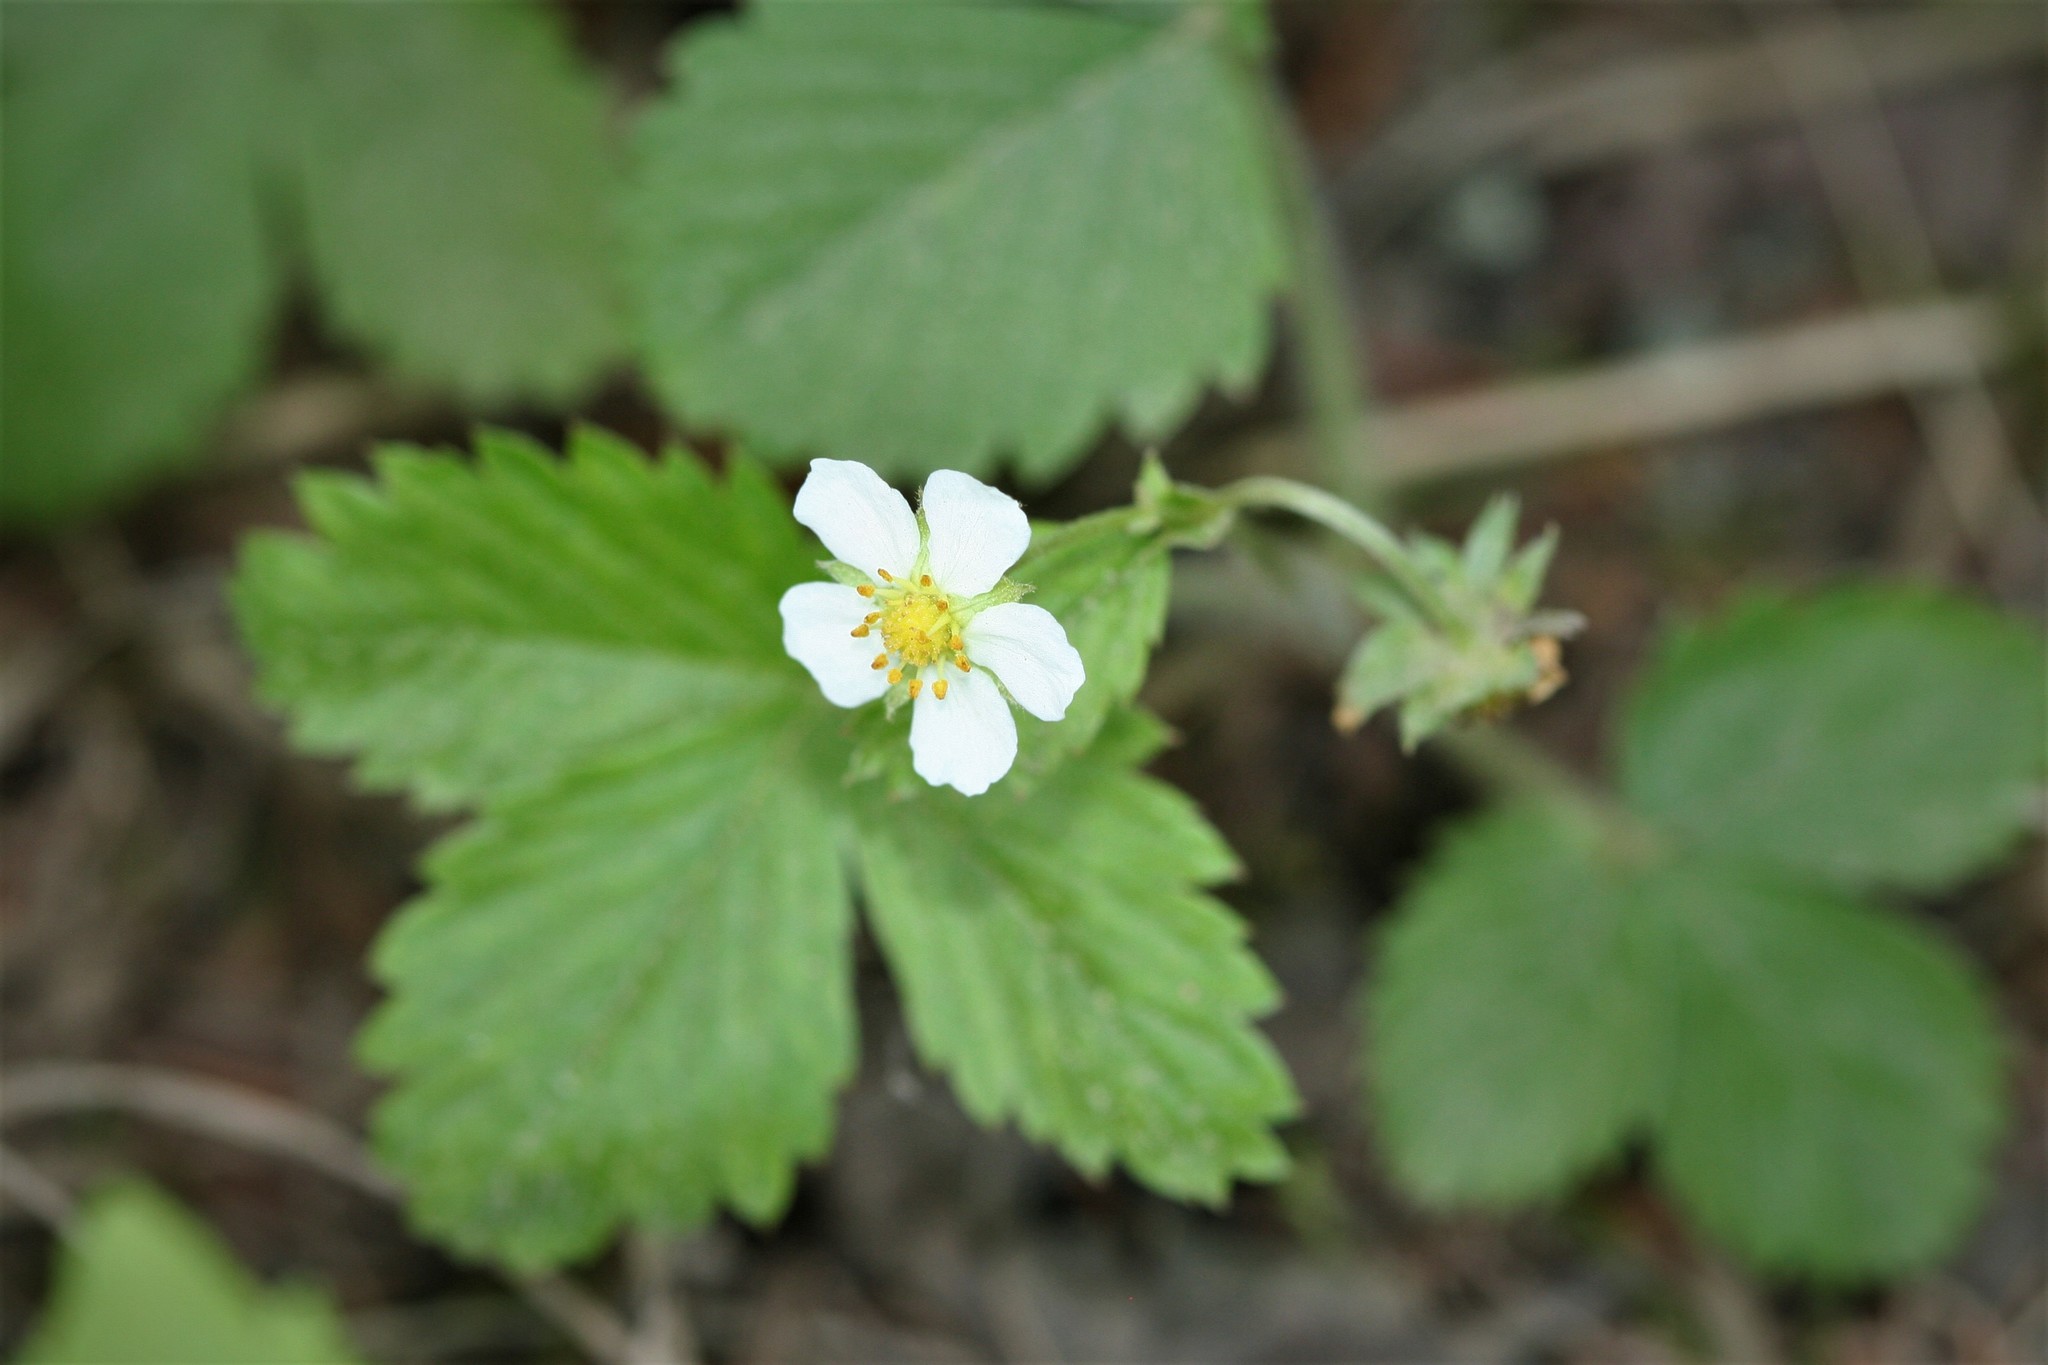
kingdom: Plantae
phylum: Tracheophyta
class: Magnoliopsida
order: Rosales
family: Rosaceae
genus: Fragaria
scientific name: Fragaria vesca
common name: Wild strawberry
